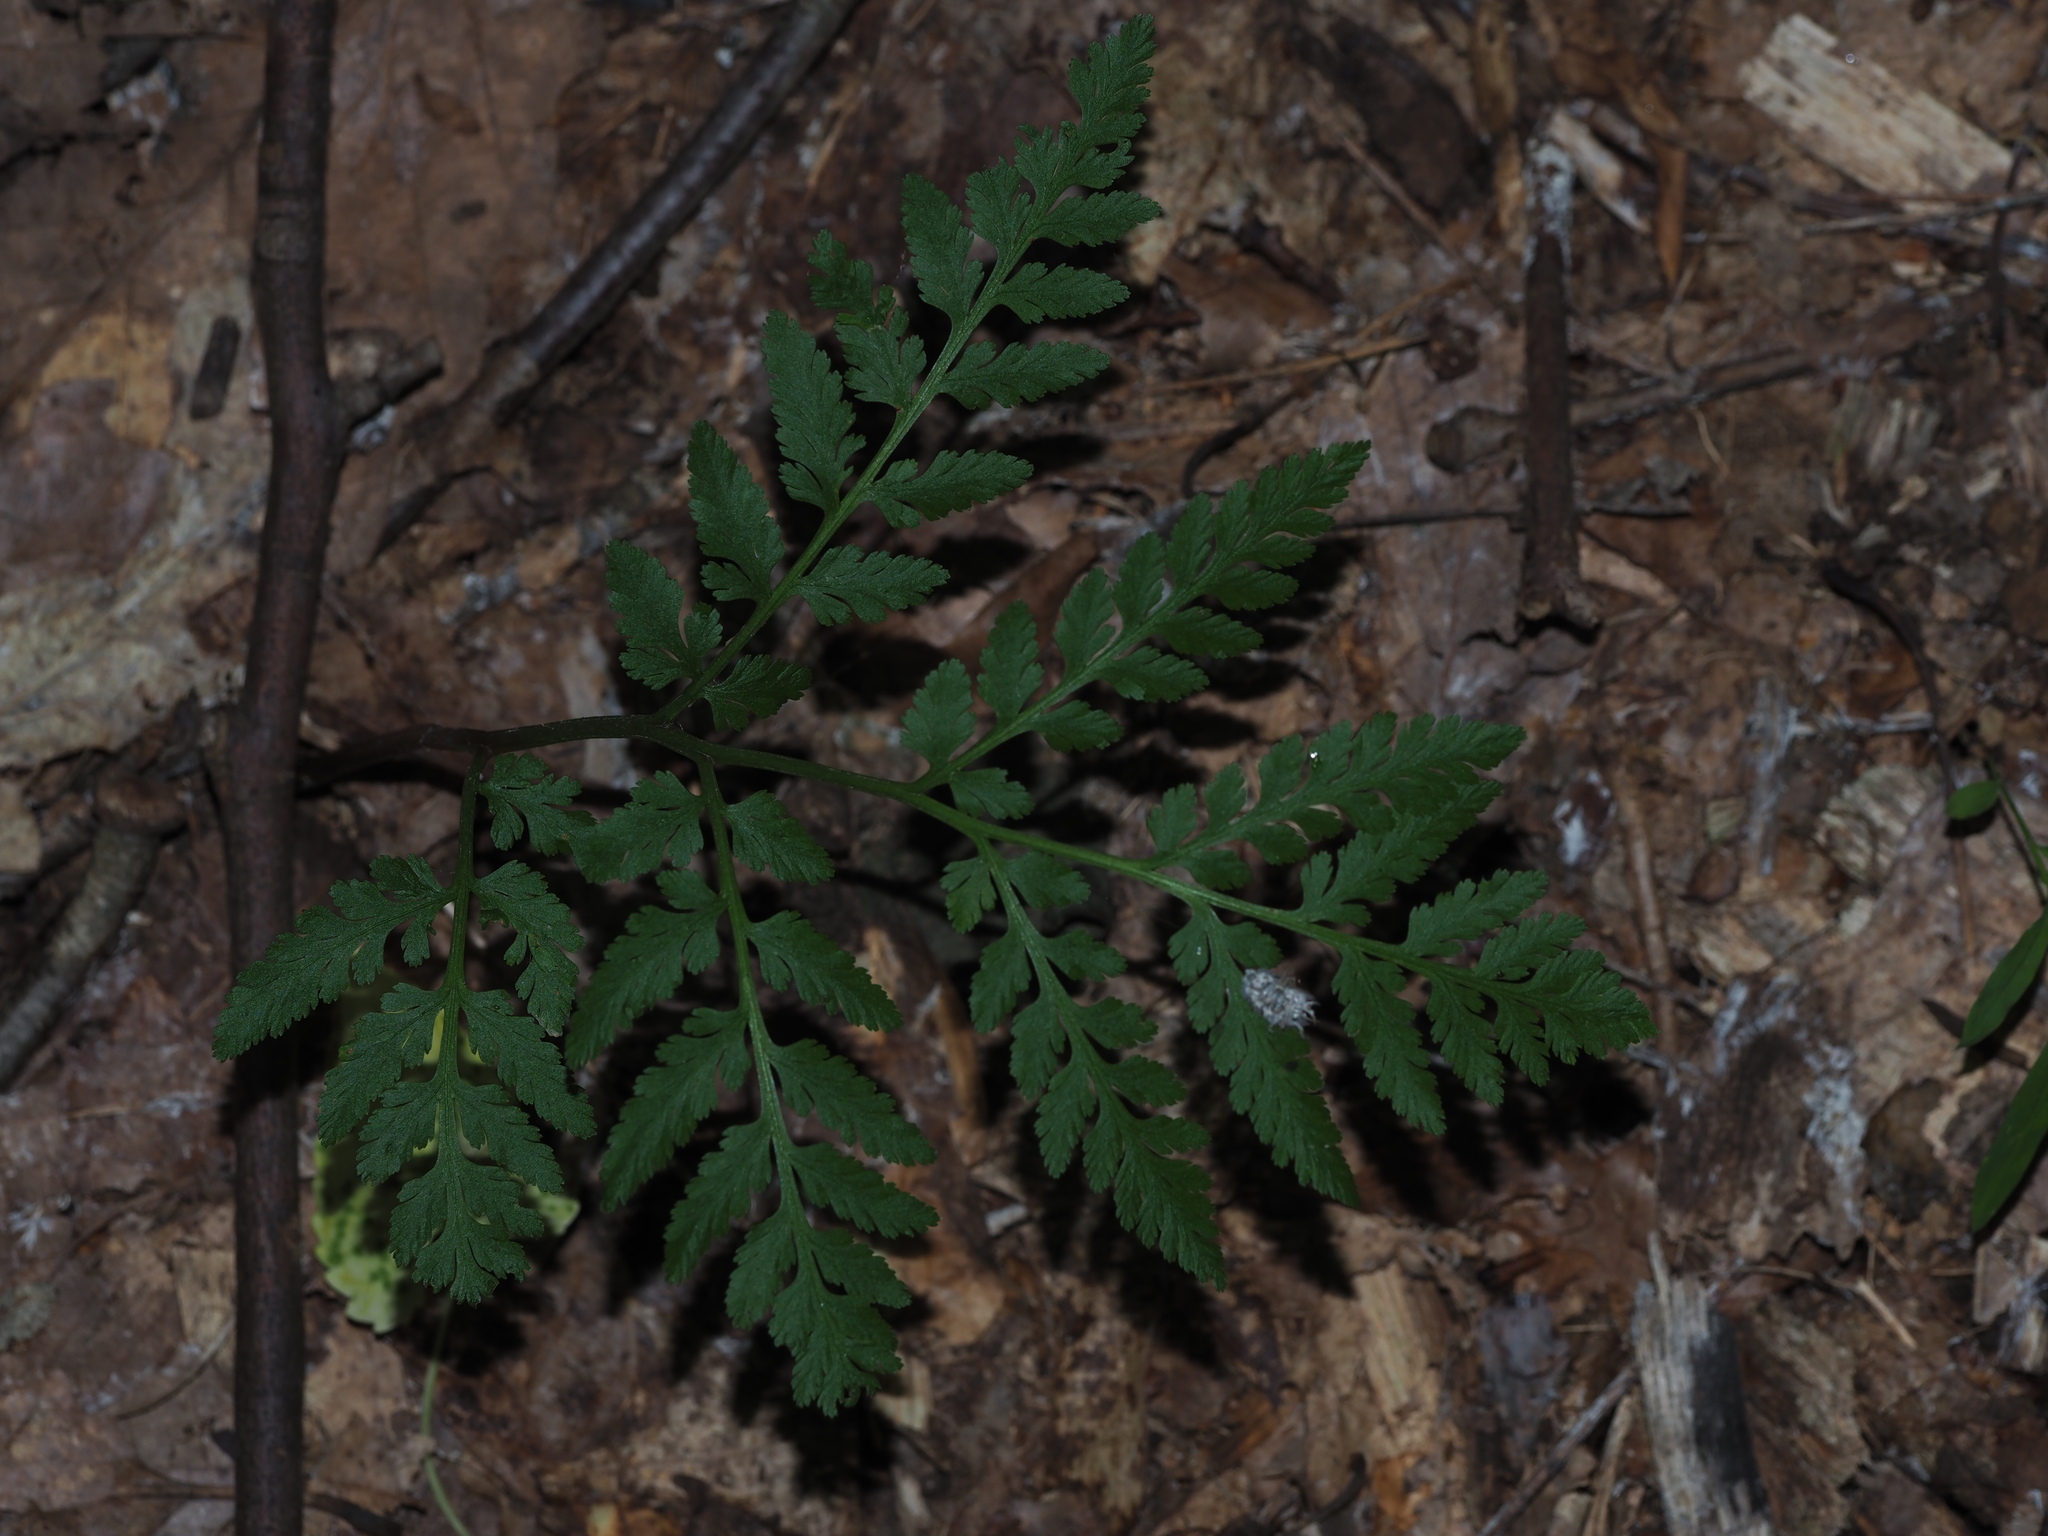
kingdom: Plantae
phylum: Tracheophyta
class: Polypodiopsida
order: Ophioglossales
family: Ophioglossaceae
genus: Botrypus
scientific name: Botrypus virginianus
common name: Common grapefern
